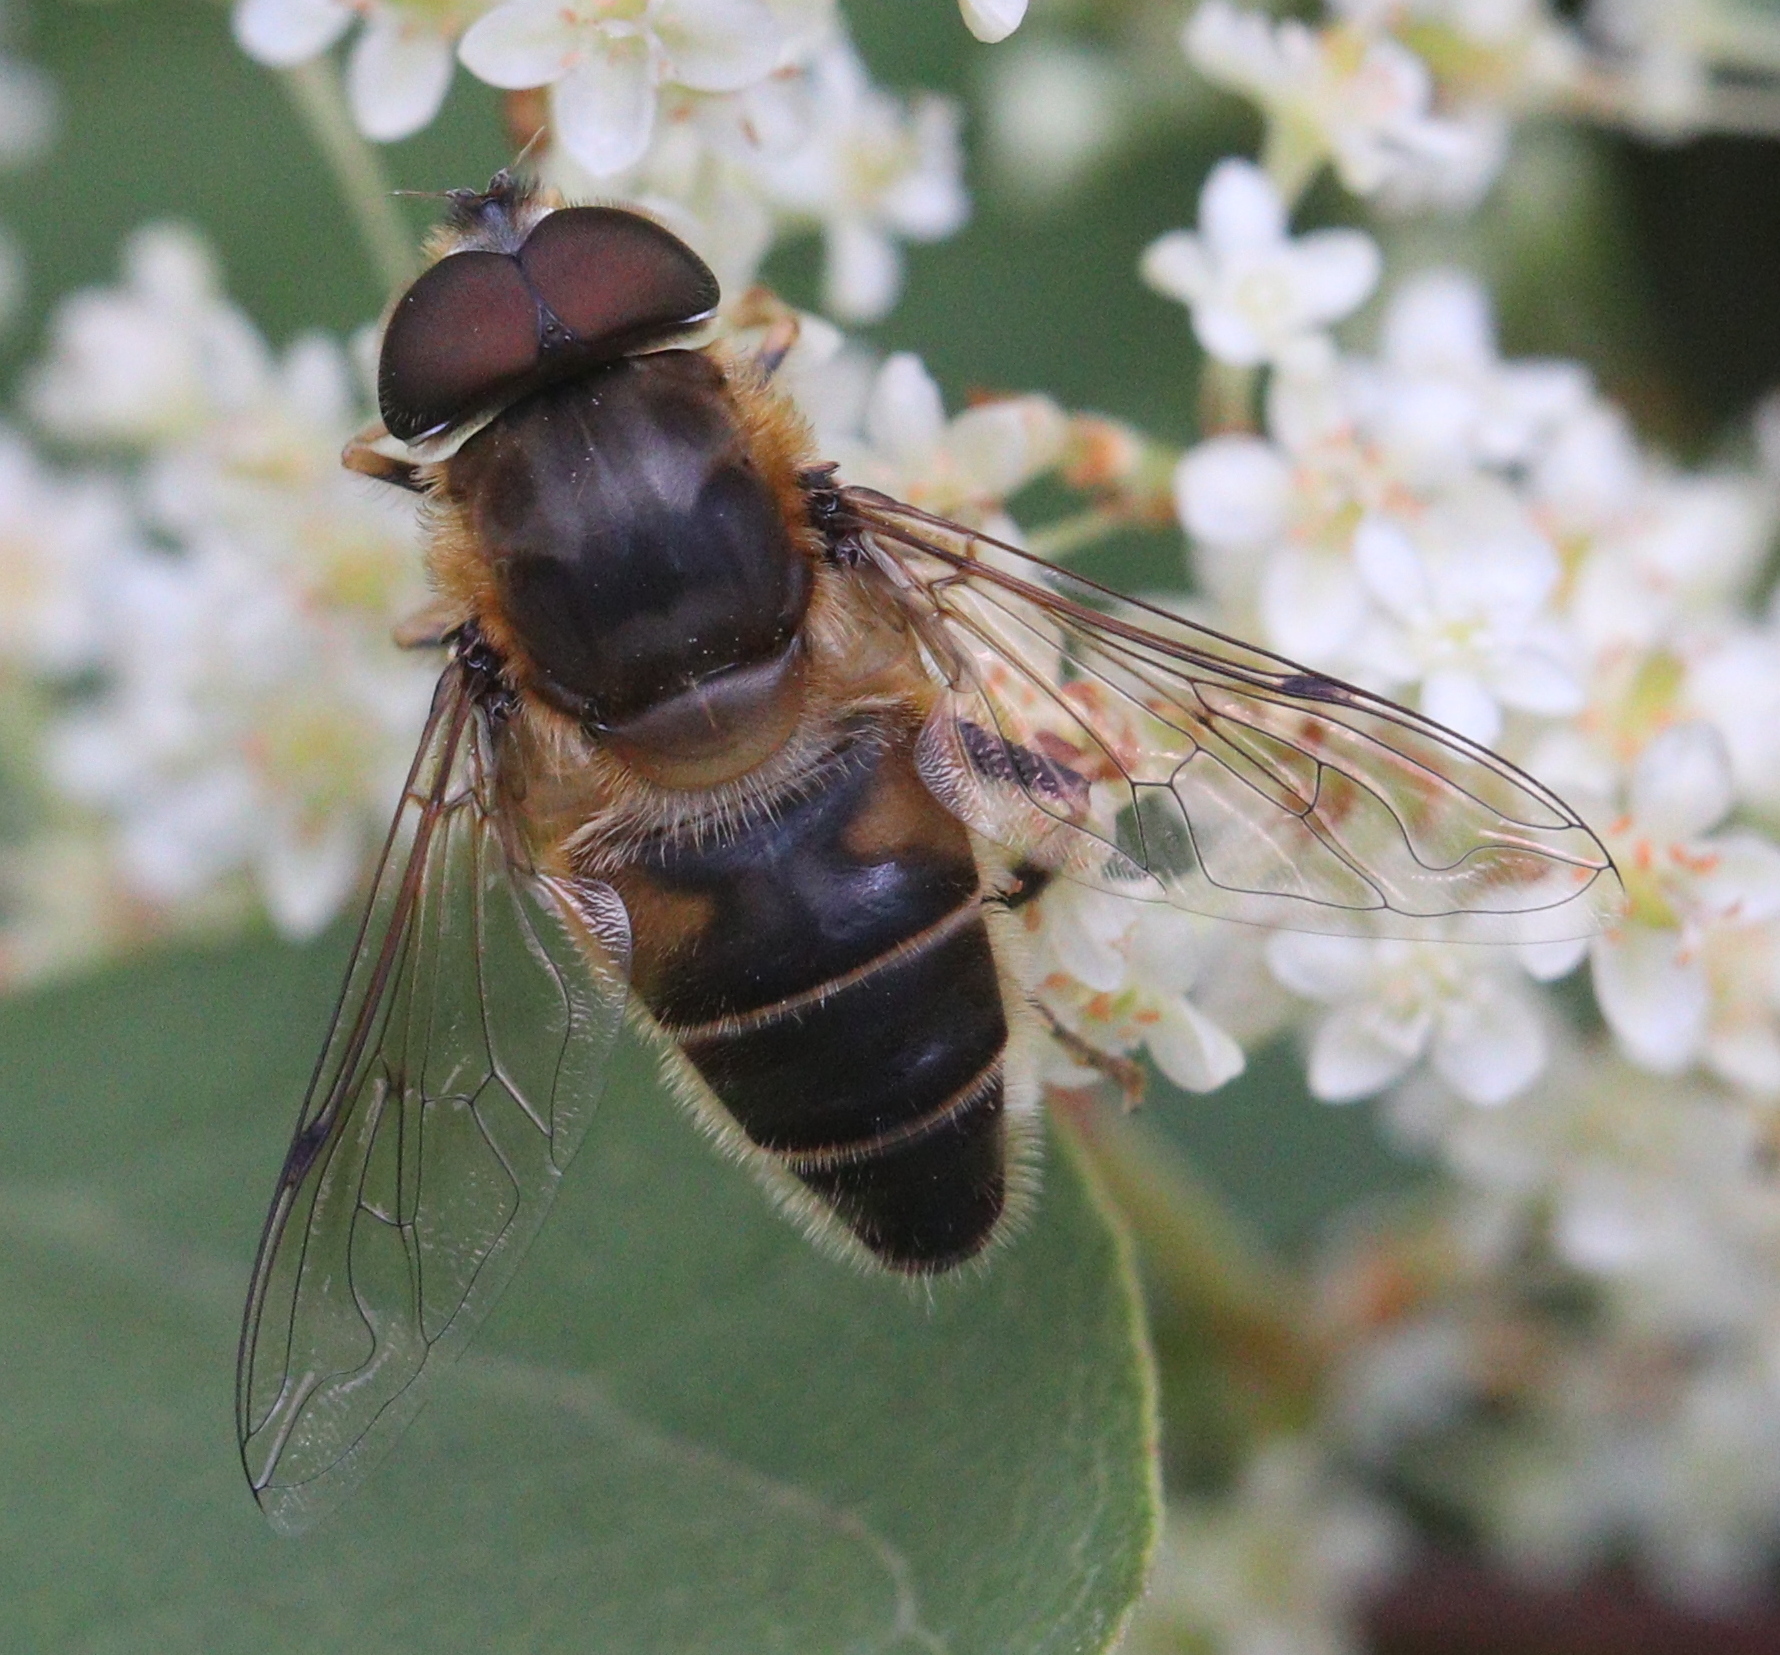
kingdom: Animalia
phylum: Arthropoda
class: Insecta
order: Diptera
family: Syrphidae
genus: Eristalis
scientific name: Eristalis pertinax
